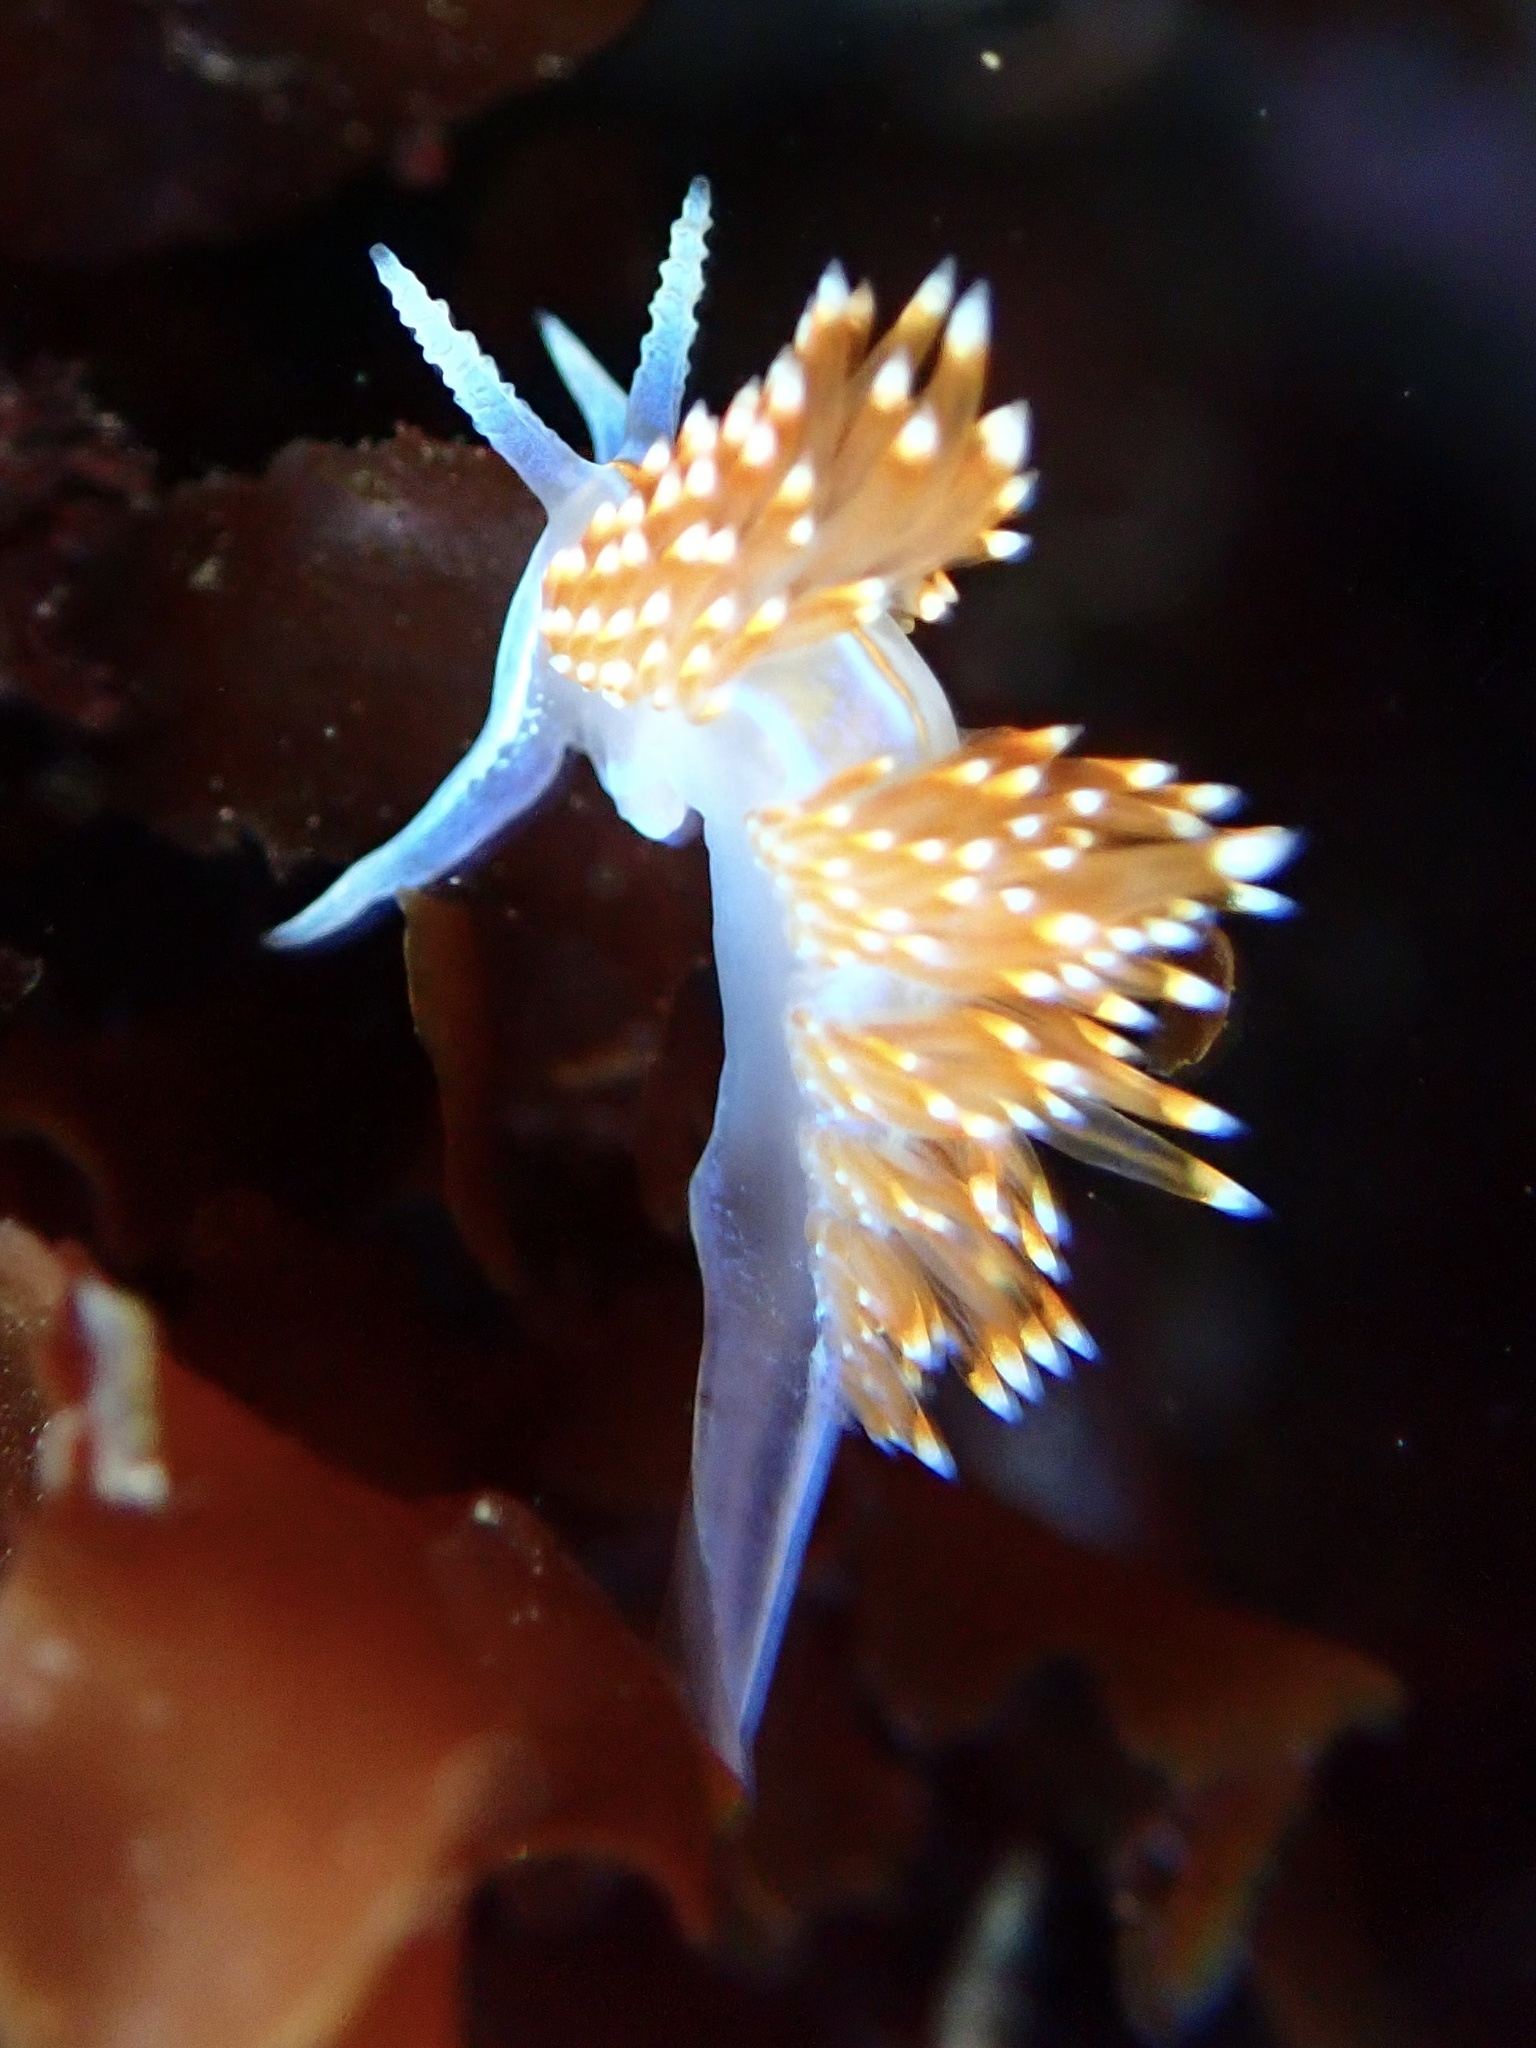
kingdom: Animalia
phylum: Mollusca
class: Gastropoda
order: Nudibranchia
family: Myrrhinidae
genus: Hermissenda
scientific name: Hermissenda opalescens
